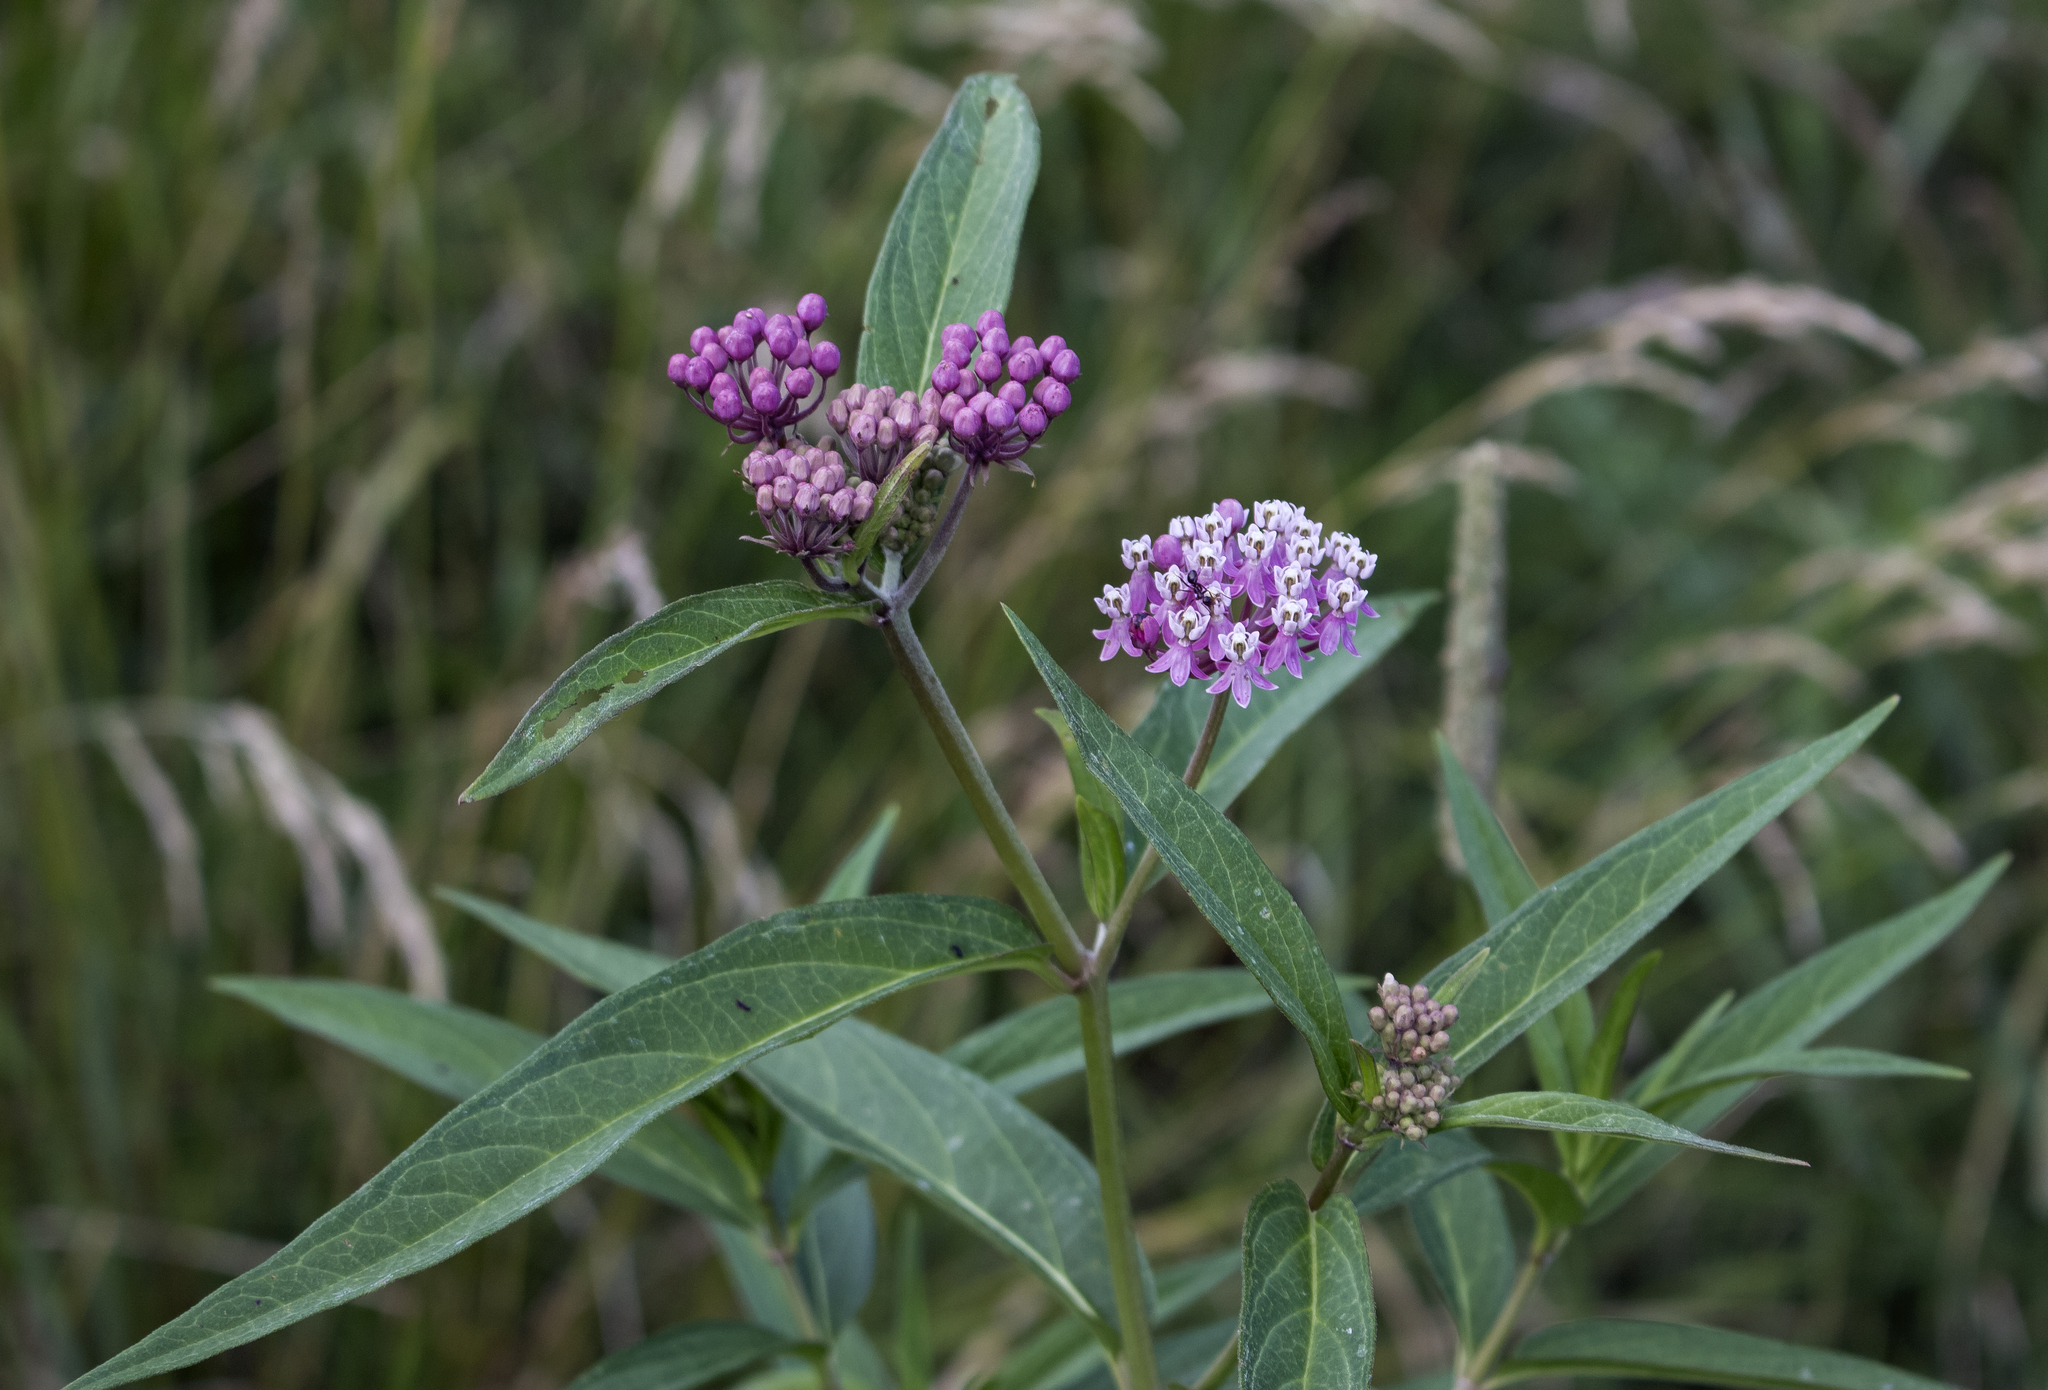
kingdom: Plantae
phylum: Tracheophyta
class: Magnoliopsida
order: Gentianales
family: Apocynaceae
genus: Asclepias
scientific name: Asclepias incarnata
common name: Swamp milkweed
